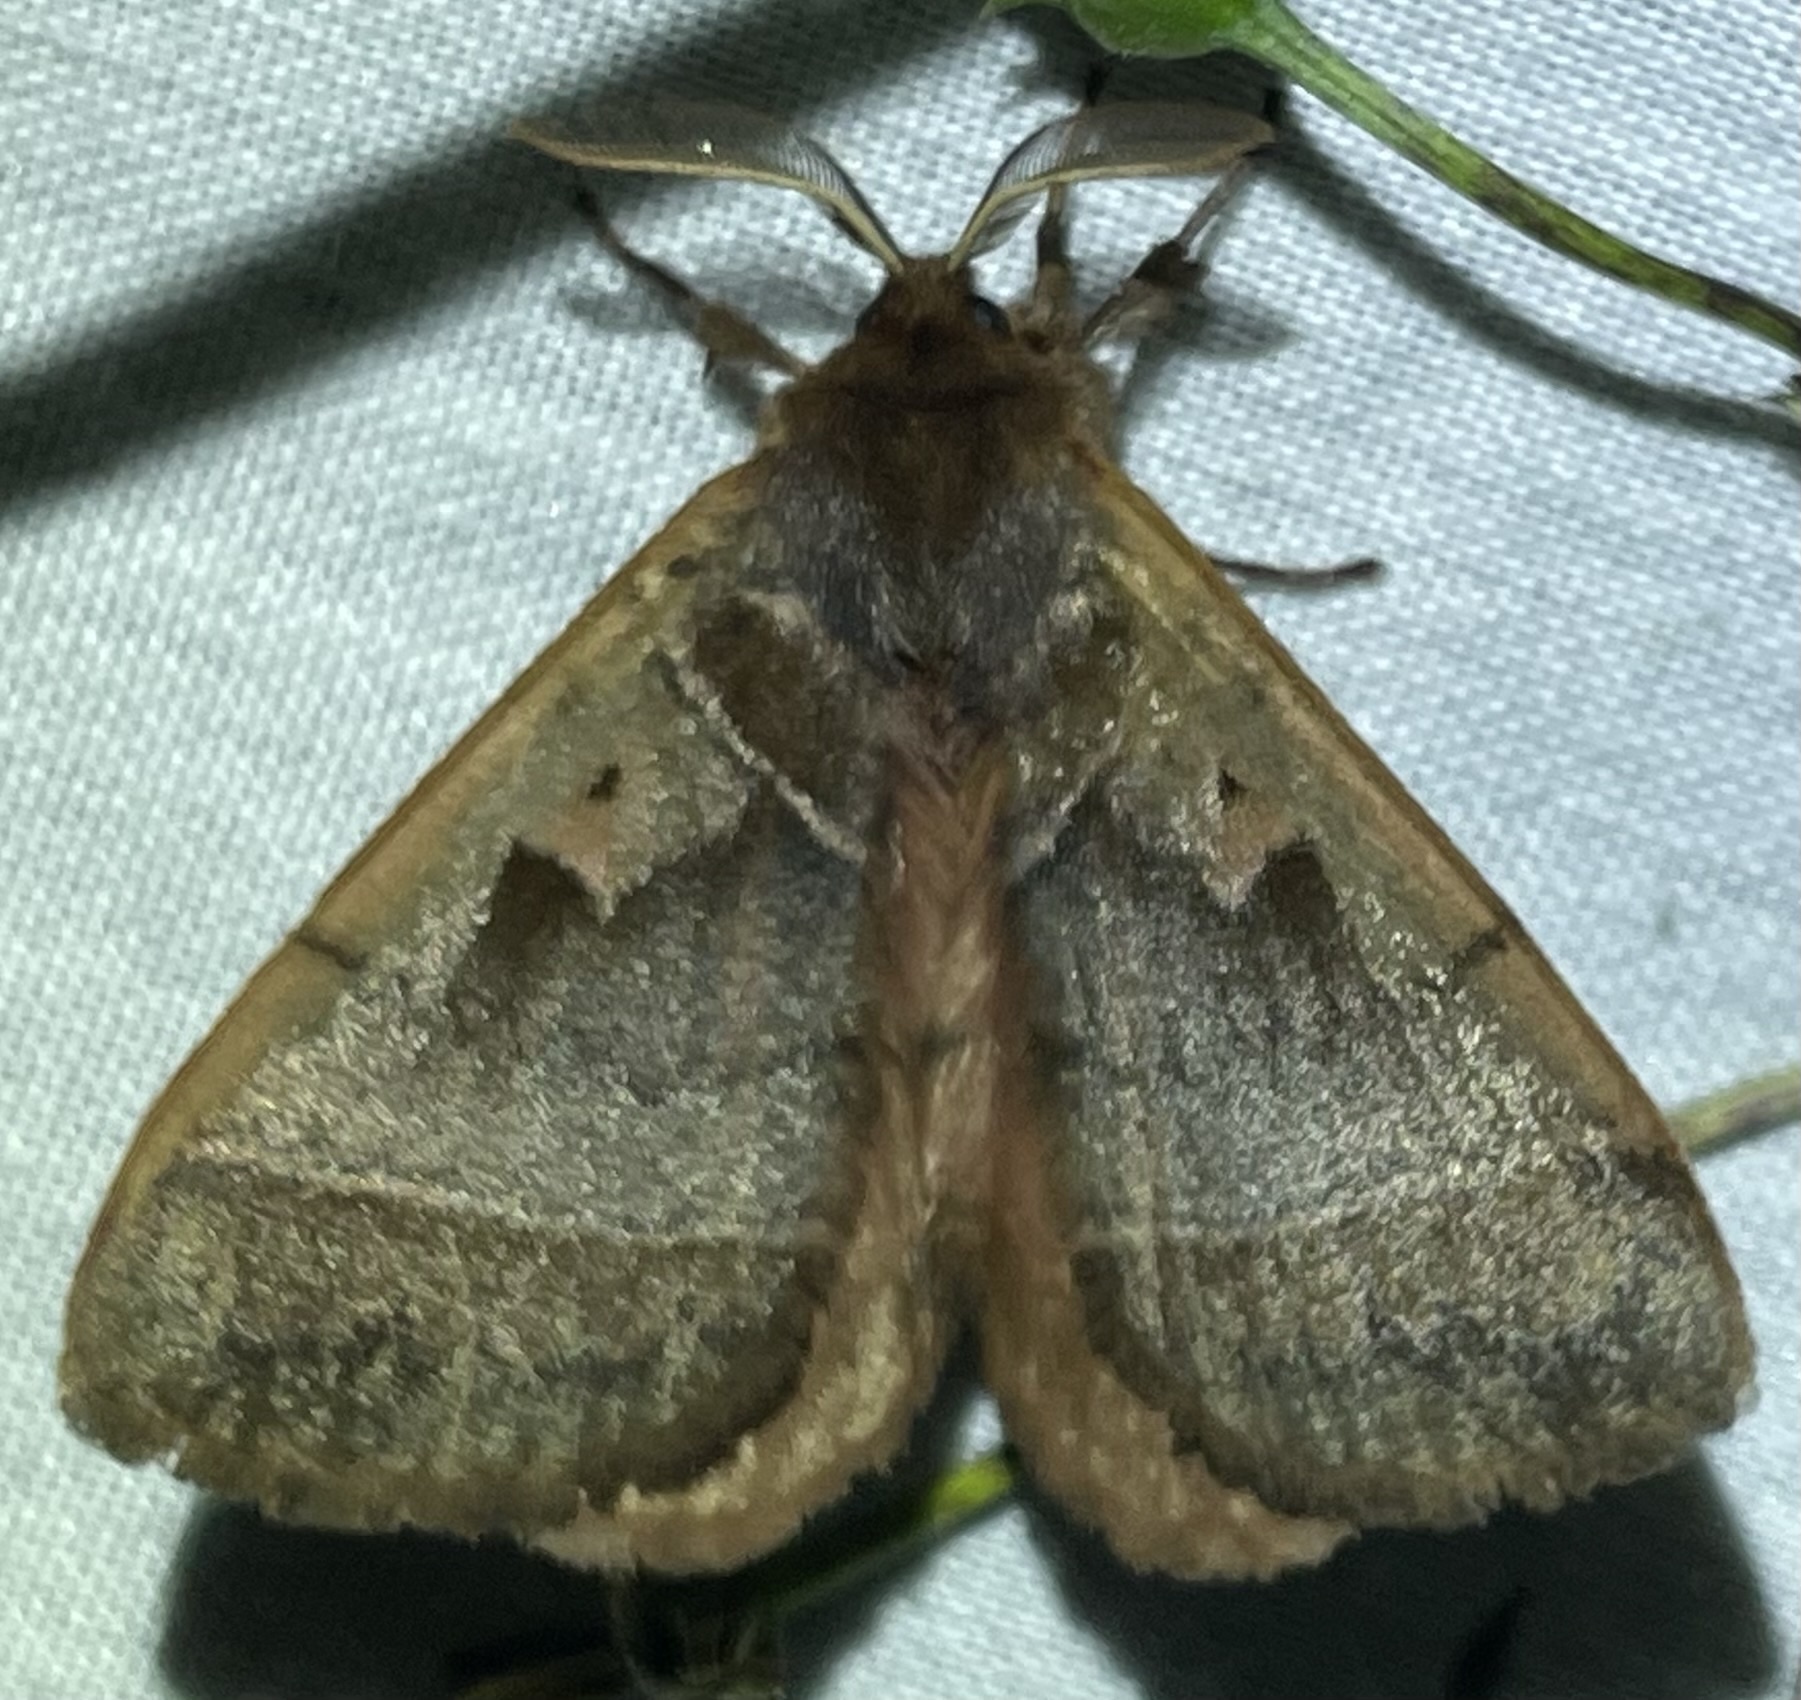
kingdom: Animalia
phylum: Arthropoda
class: Insecta
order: Lepidoptera
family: Eupterotidae
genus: Poloma
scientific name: Poloma angulata
